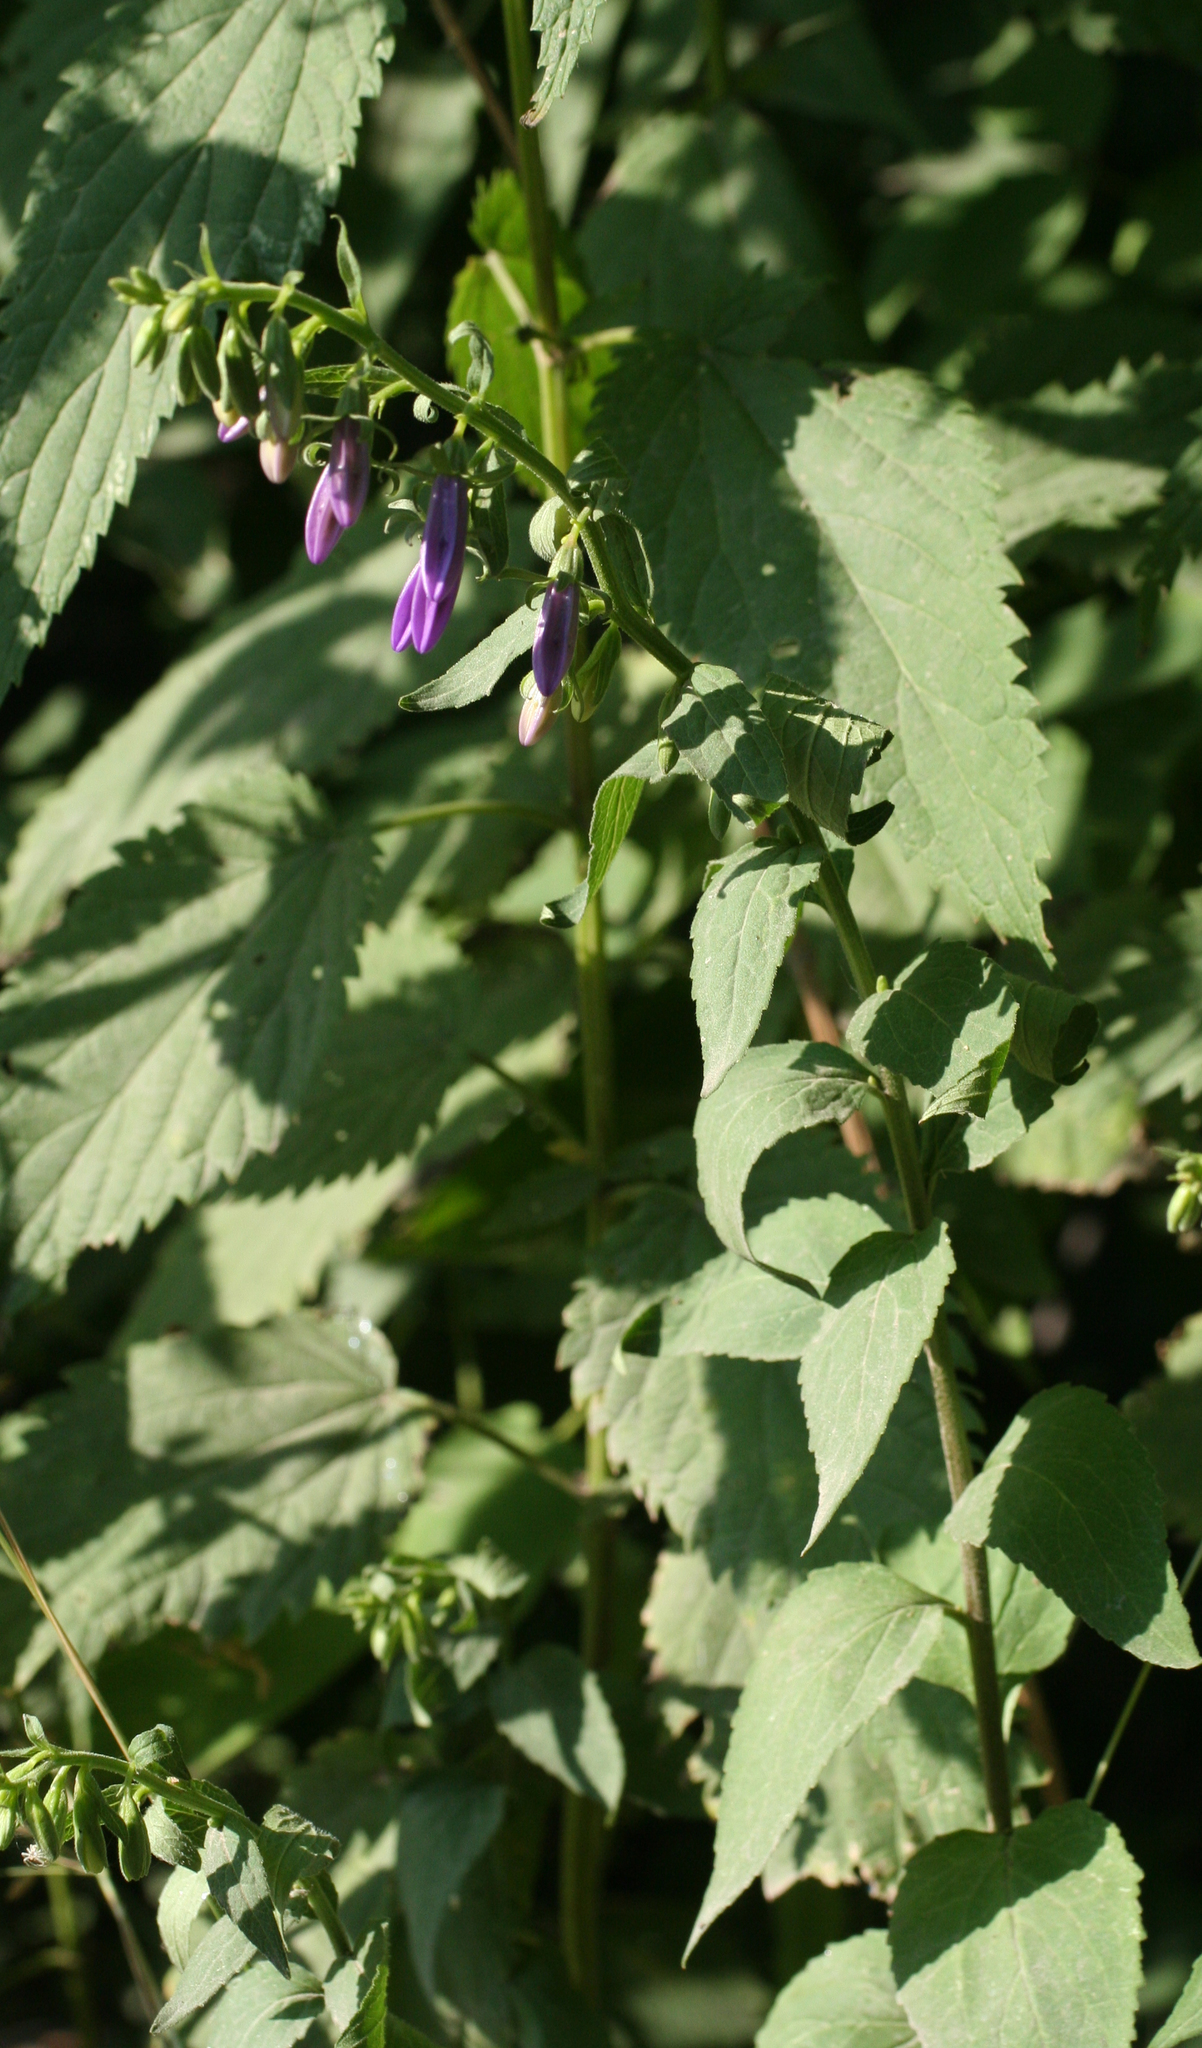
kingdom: Plantae
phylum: Tracheophyta
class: Magnoliopsida
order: Asterales
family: Campanulaceae
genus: Campanula
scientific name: Campanula rapunculoides
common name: Creeping bellflower
